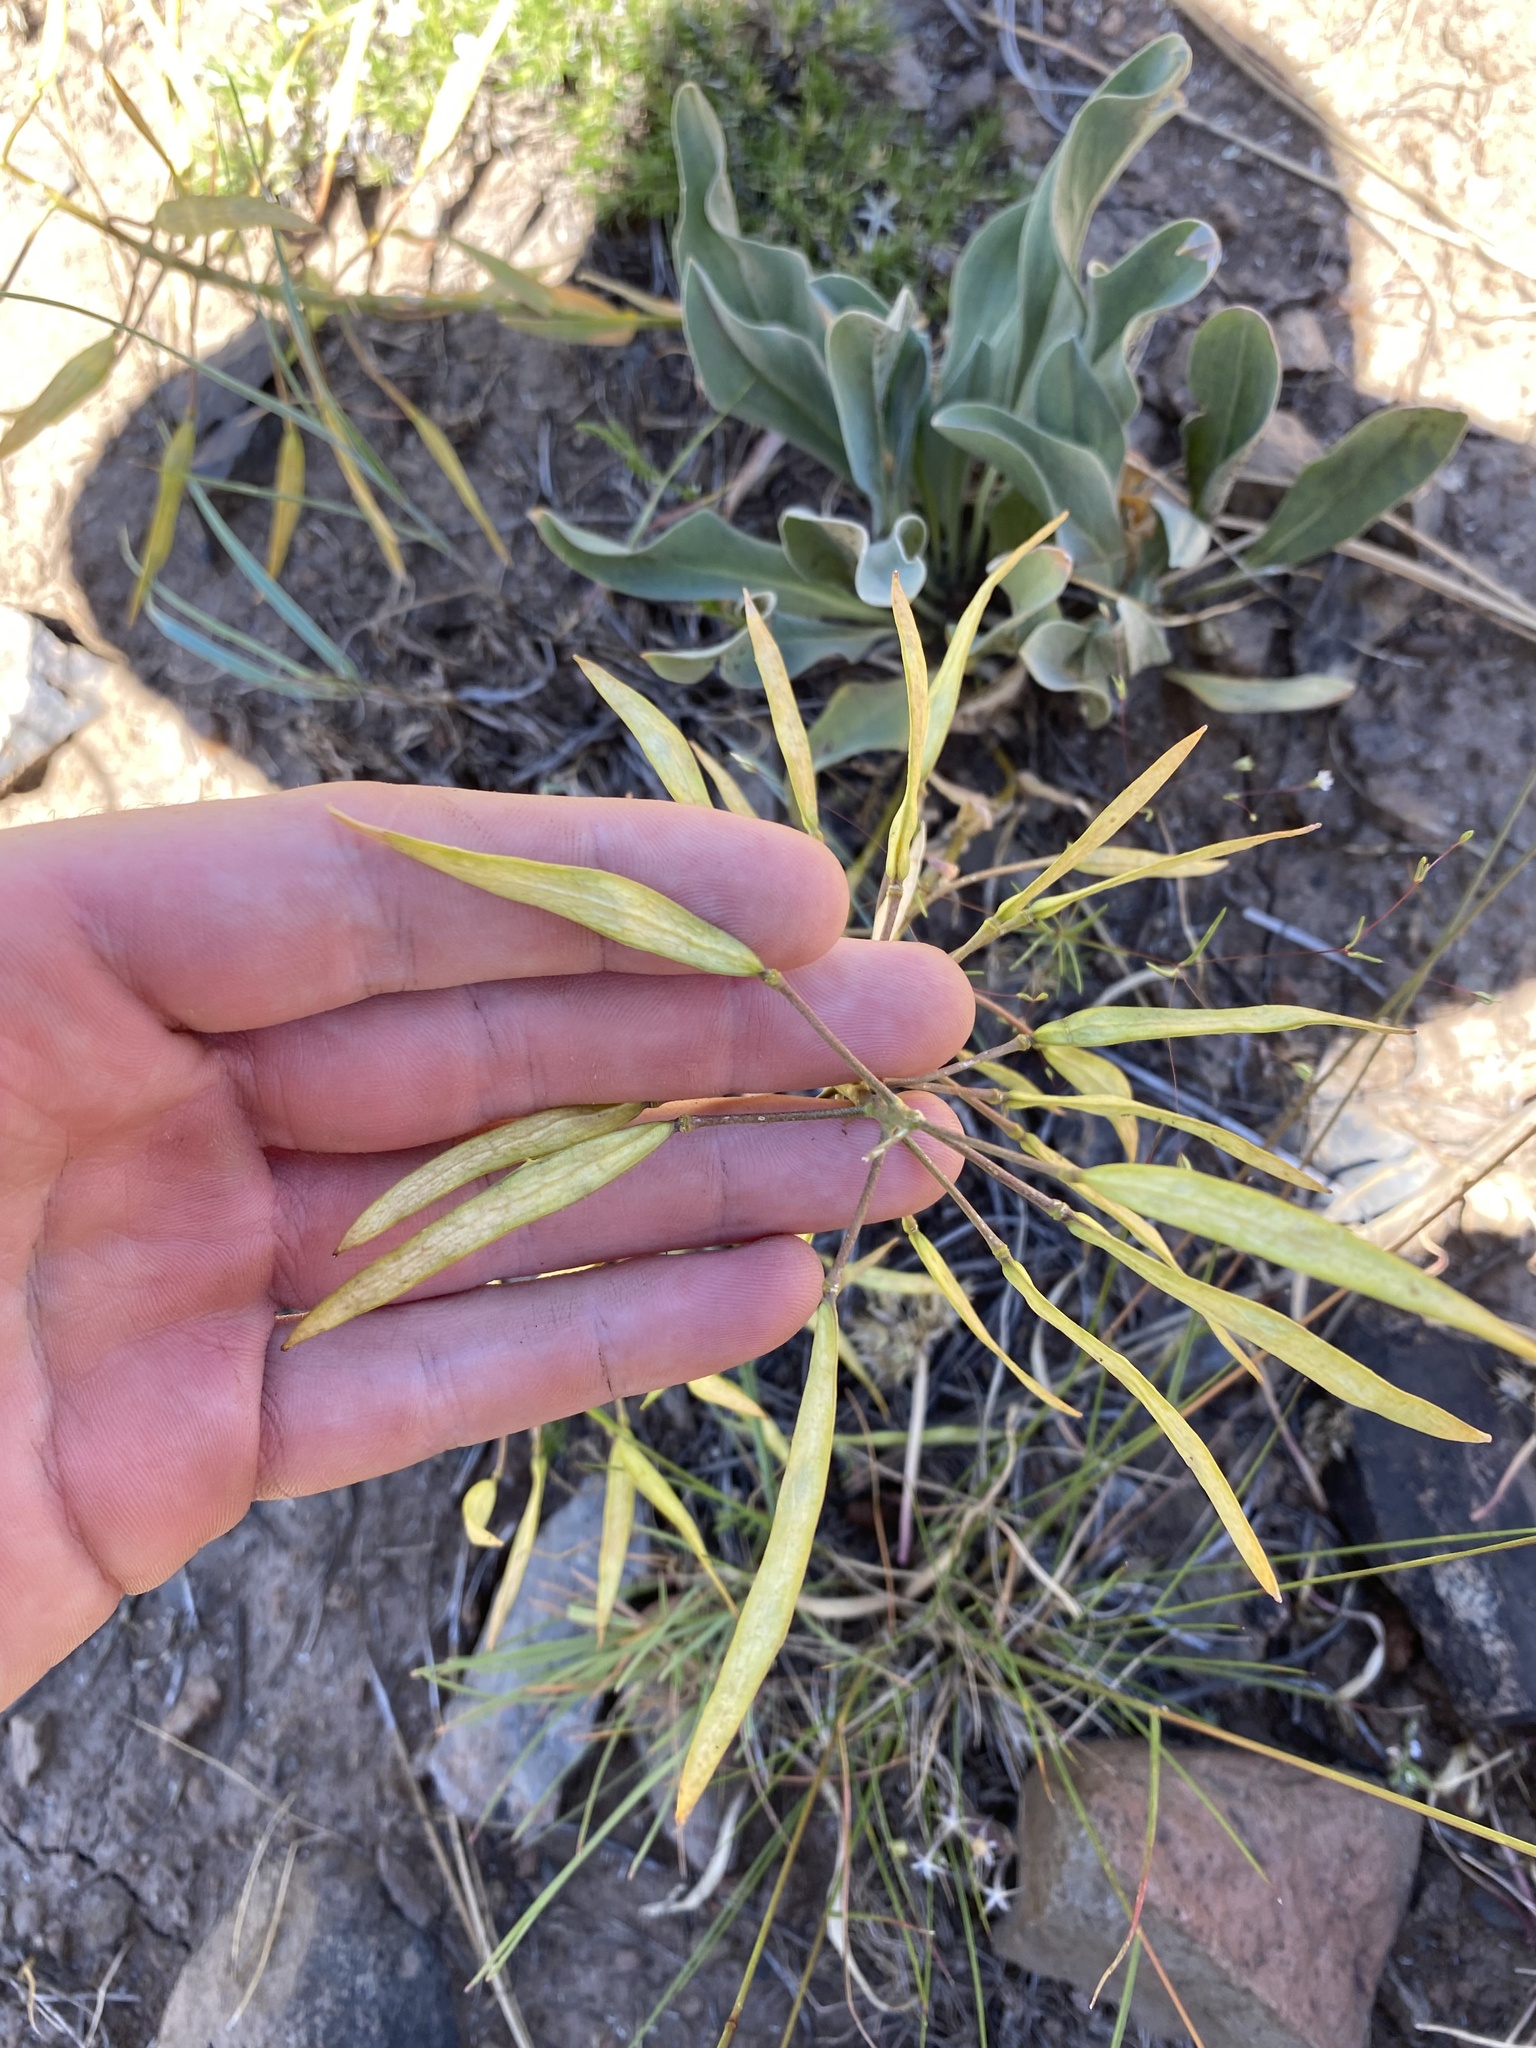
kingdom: Plantae
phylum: Tracheophyta
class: Magnoliopsida
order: Brassicales
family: Brassicaceae
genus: Phoenicaulis
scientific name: Phoenicaulis cheiranthoides
